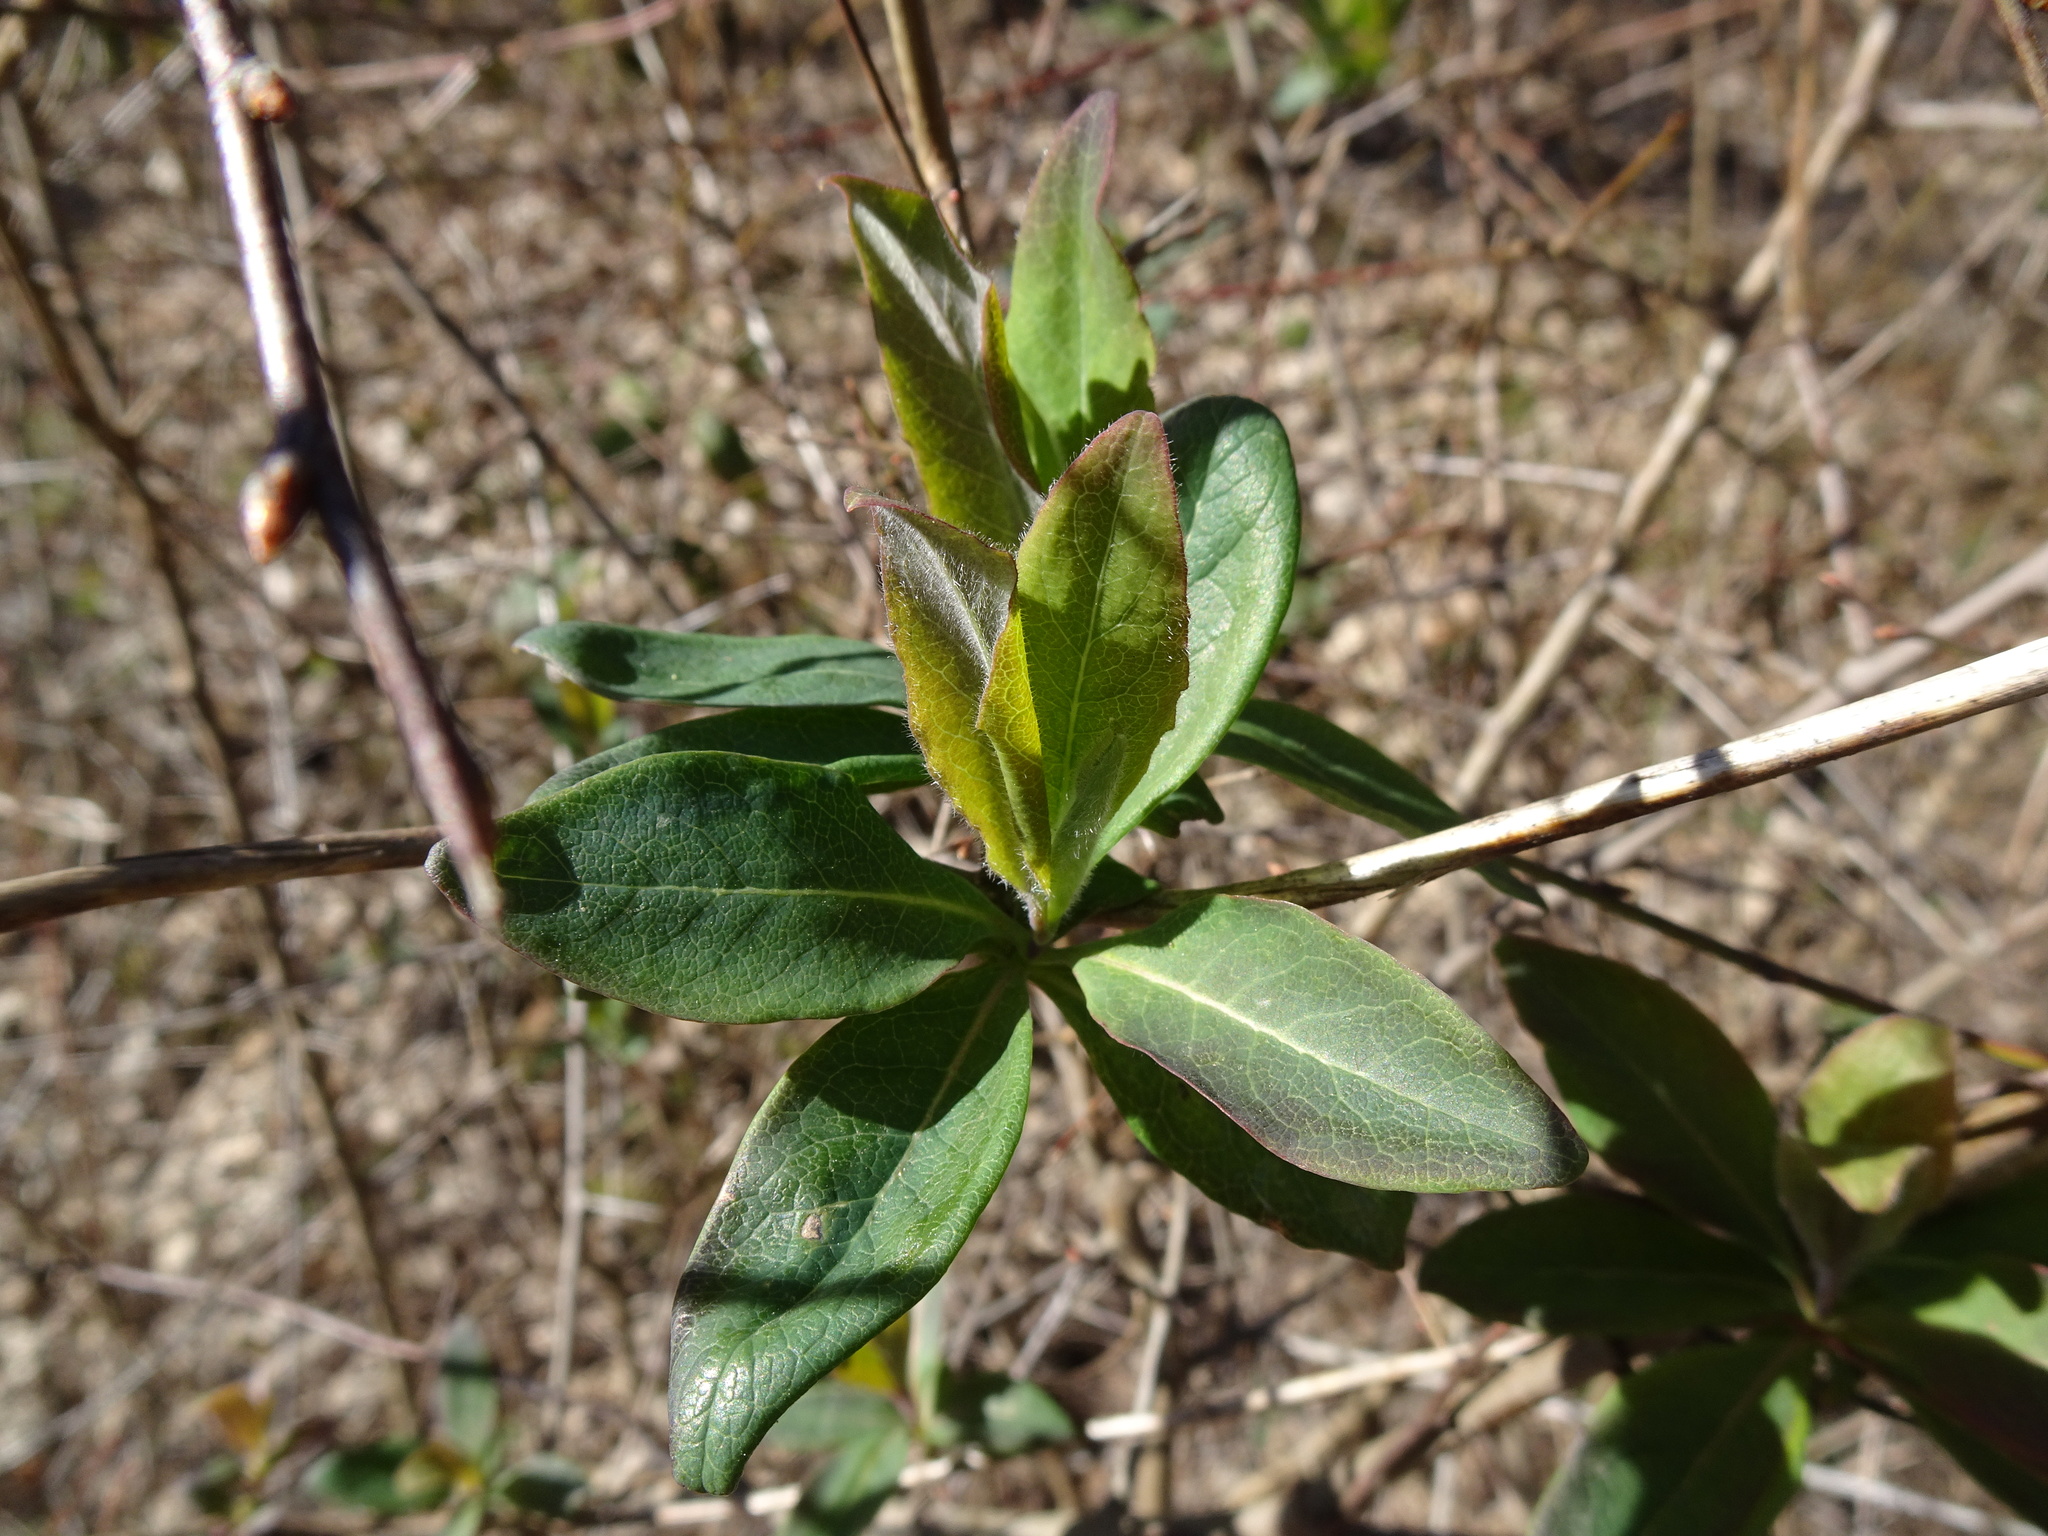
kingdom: Plantae
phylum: Tracheophyta
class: Magnoliopsida
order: Dipsacales
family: Caprifoliaceae
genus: Lonicera
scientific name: Lonicera periclymenum
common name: European honeysuckle
